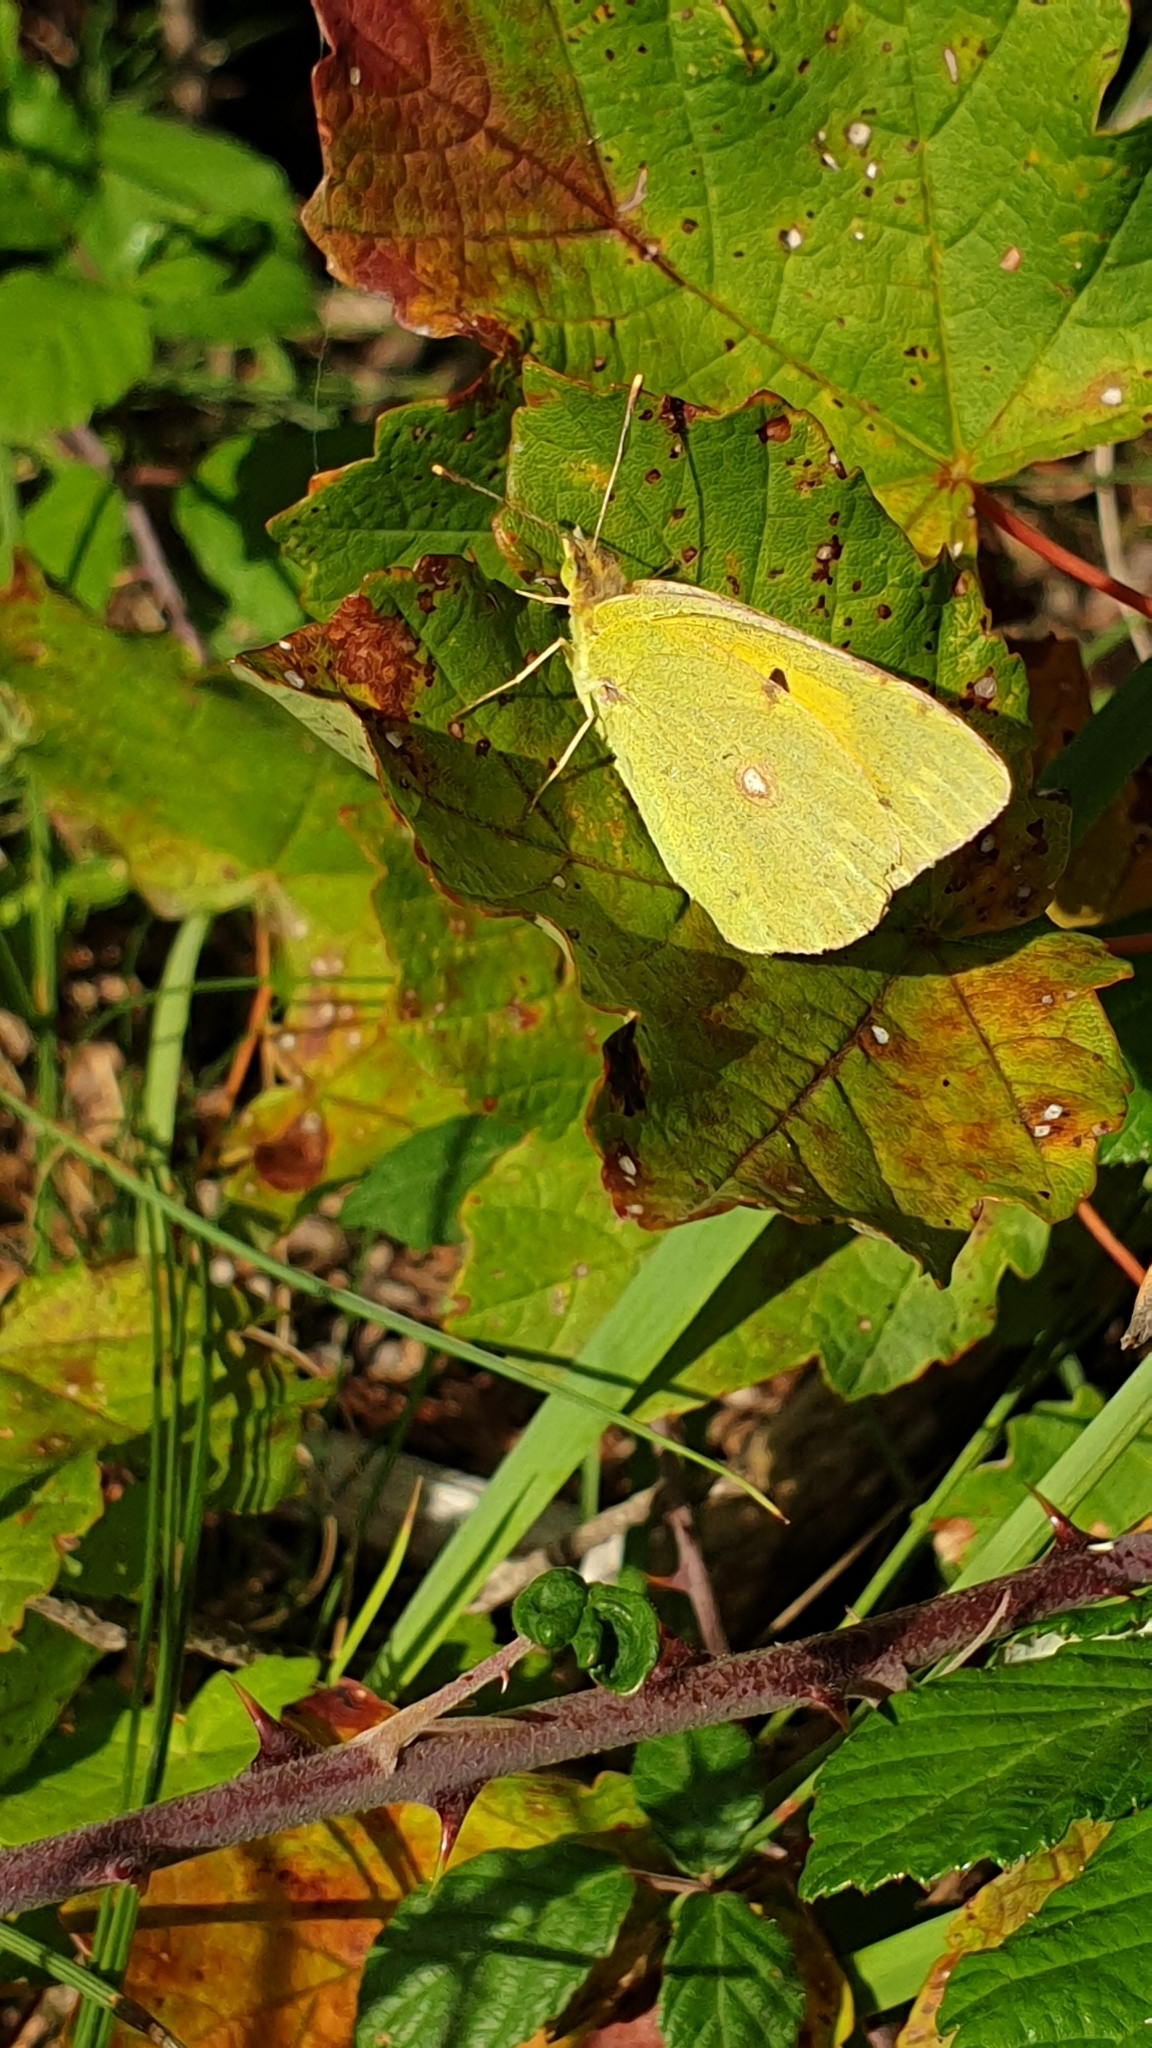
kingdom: Animalia
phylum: Arthropoda
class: Insecta
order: Lepidoptera
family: Pieridae
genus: Colias
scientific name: Colias croceus
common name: Clouded yellow
